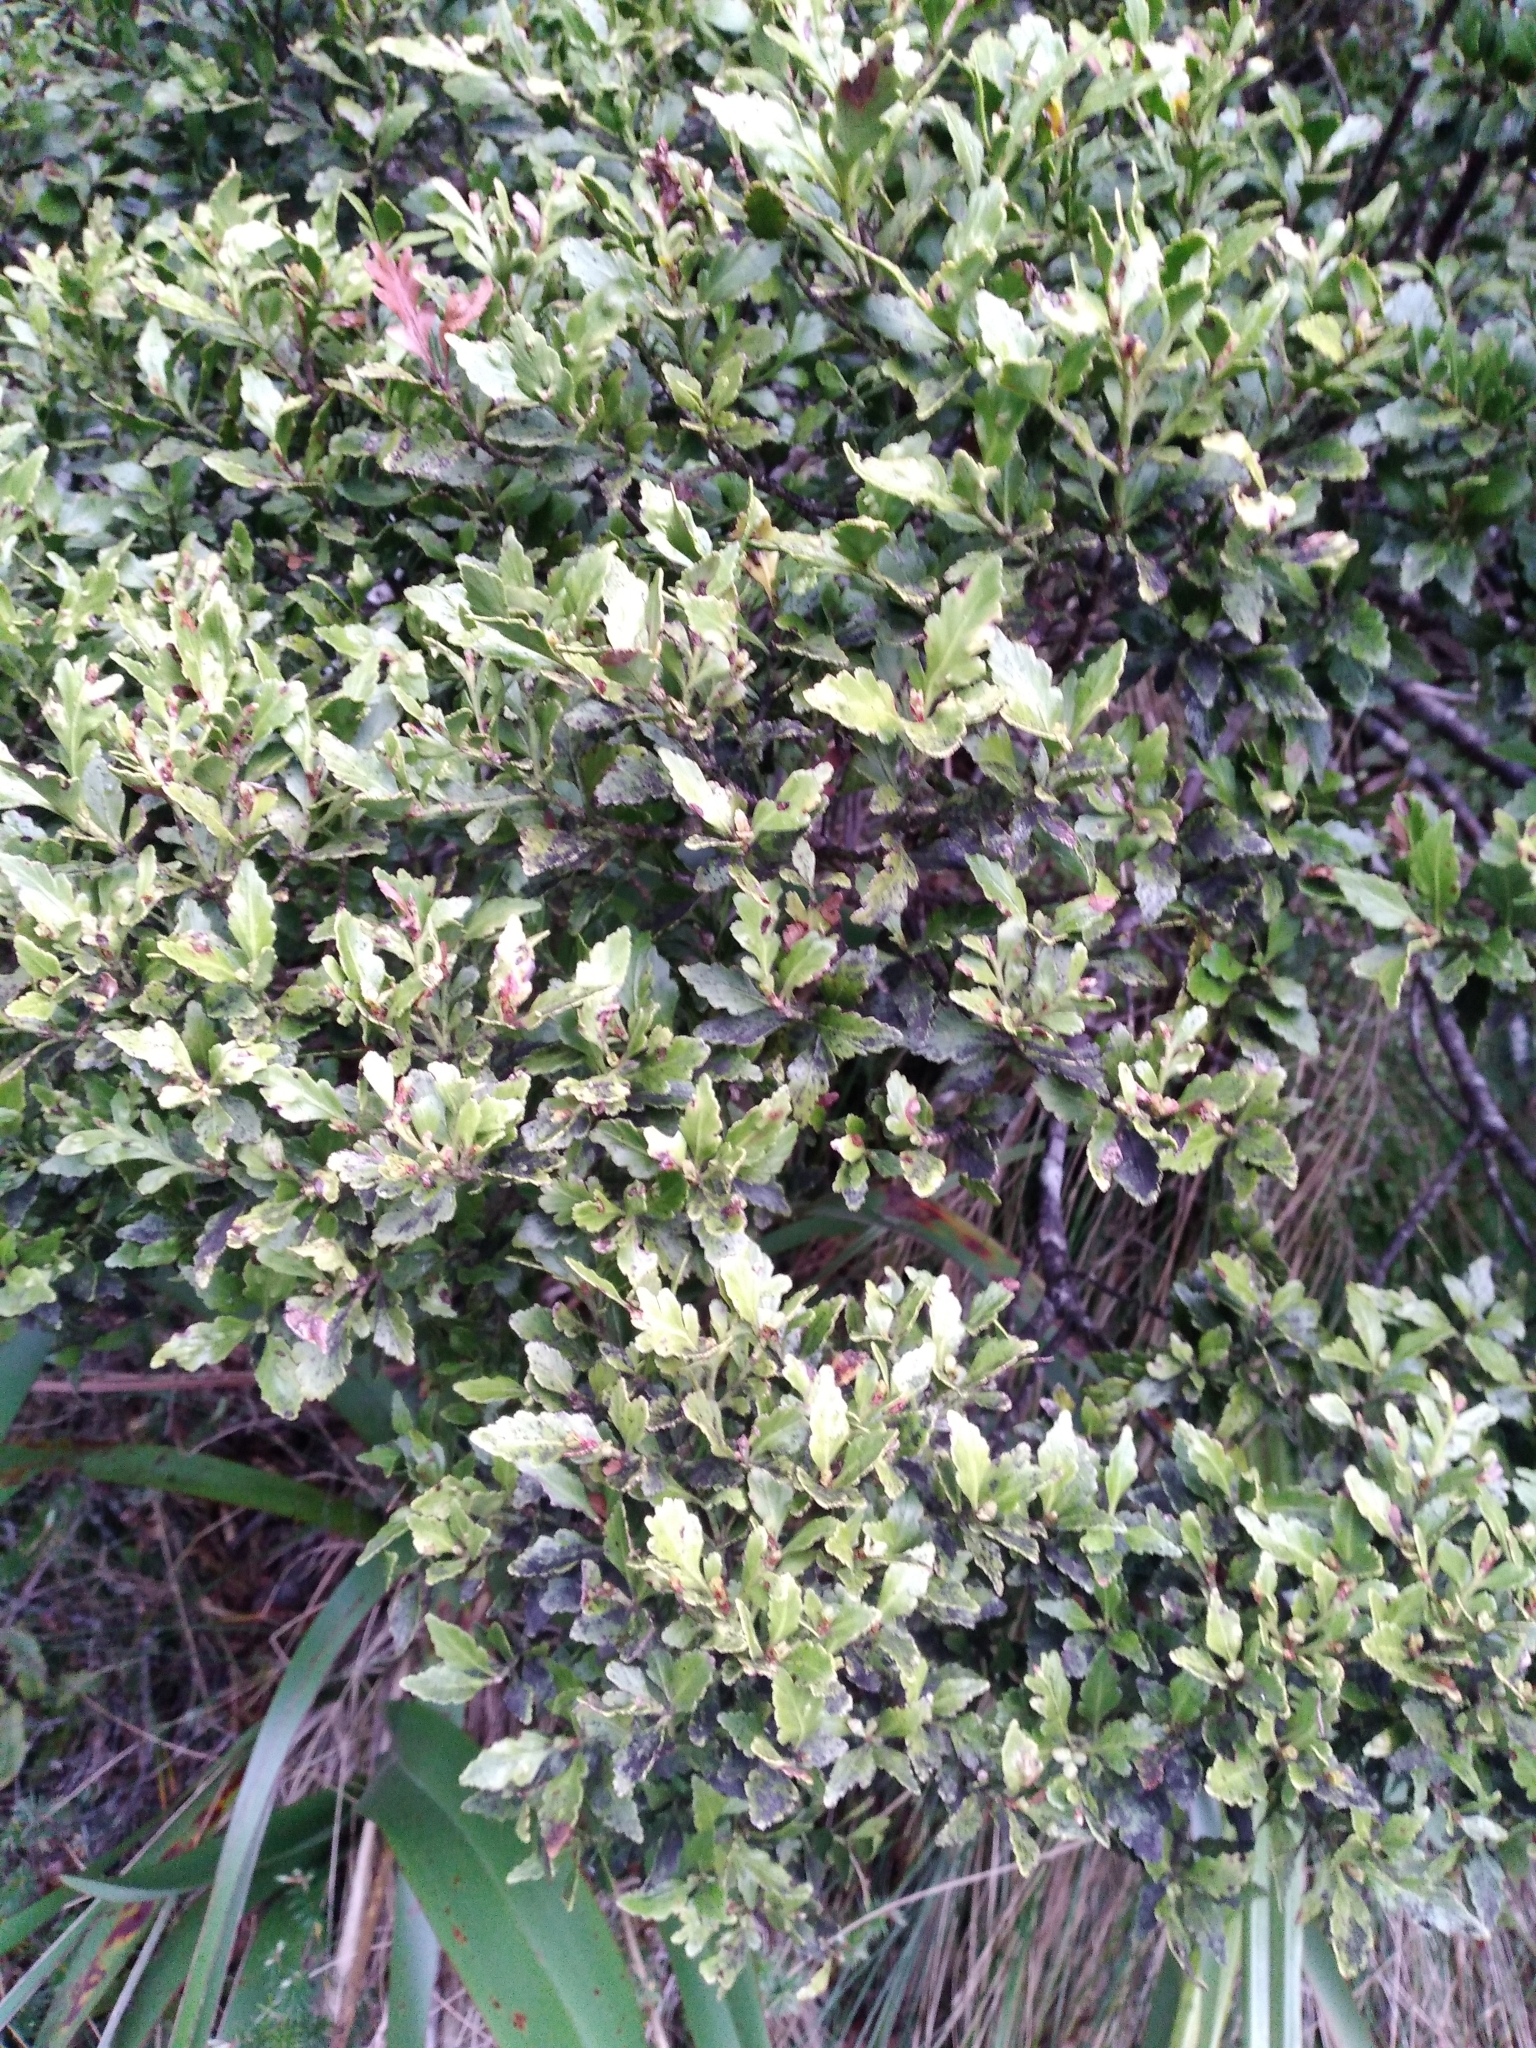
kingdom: Plantae
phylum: Tracheophyta
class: Pinopsida
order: Pinales
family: Phyllocladaceae
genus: Phyllocladus
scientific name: Phyllocladus trichomanoides
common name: Celery pine
